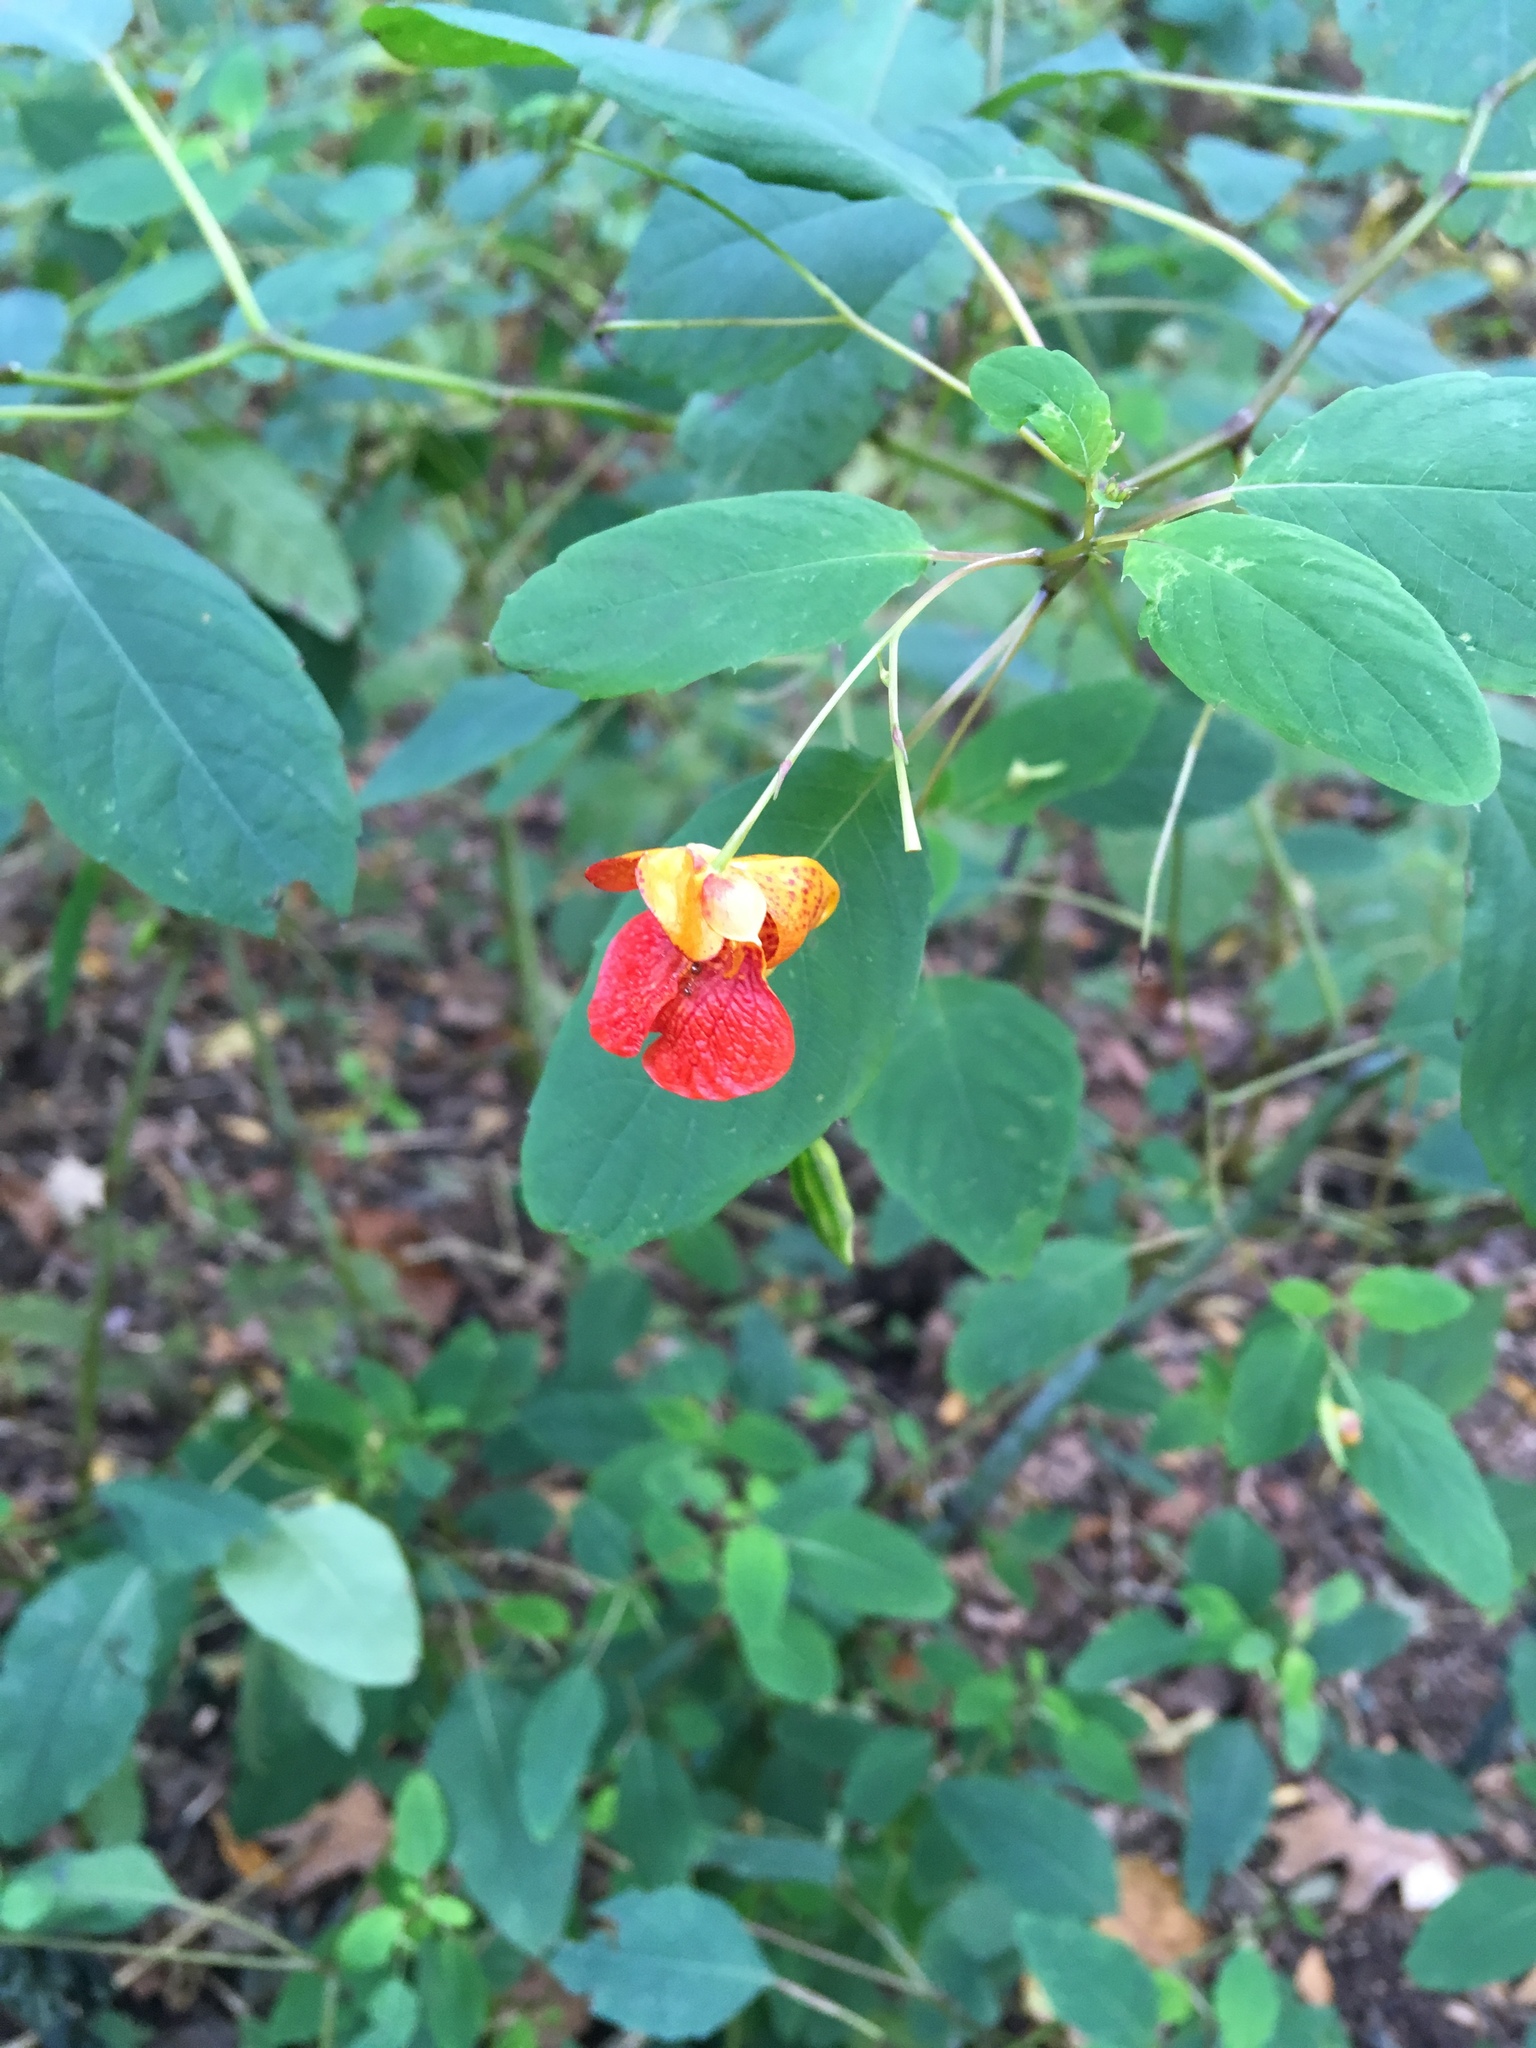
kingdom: Plantae
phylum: Tracheophyta
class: Magnoliopsida
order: Ericales
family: Balsaminaceae
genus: Impatiens
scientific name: Impatiens capensis
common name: Orange balsam
